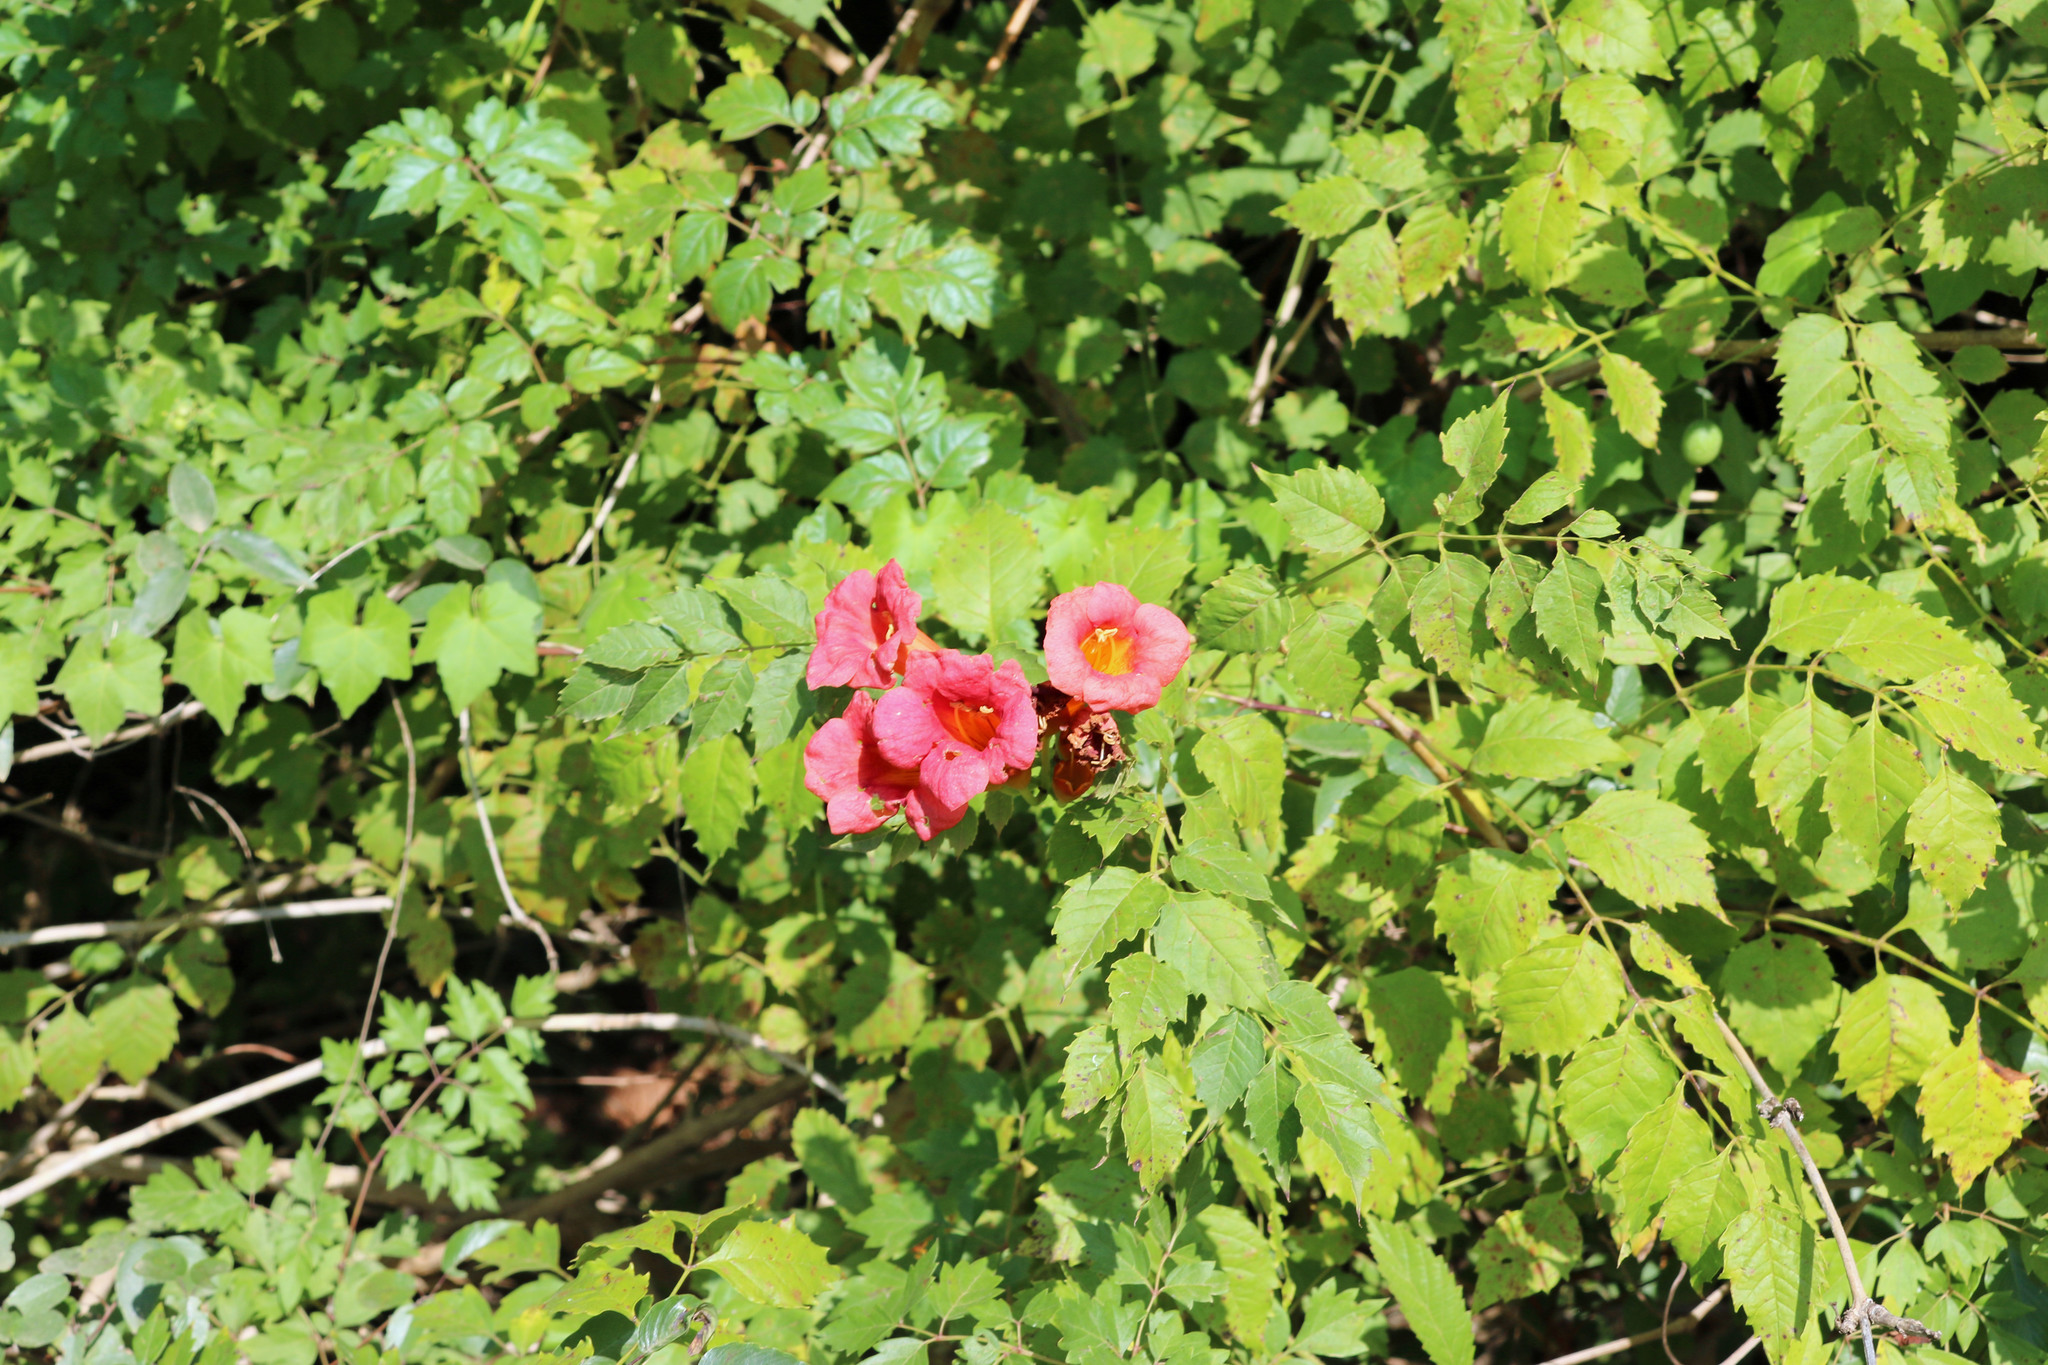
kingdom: Plantae
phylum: Tracheophyta
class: Magnoliopsida
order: Lamiales
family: Bignoniaceae
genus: Campsis
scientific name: Campsis radicans
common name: Trumpet-creeper
